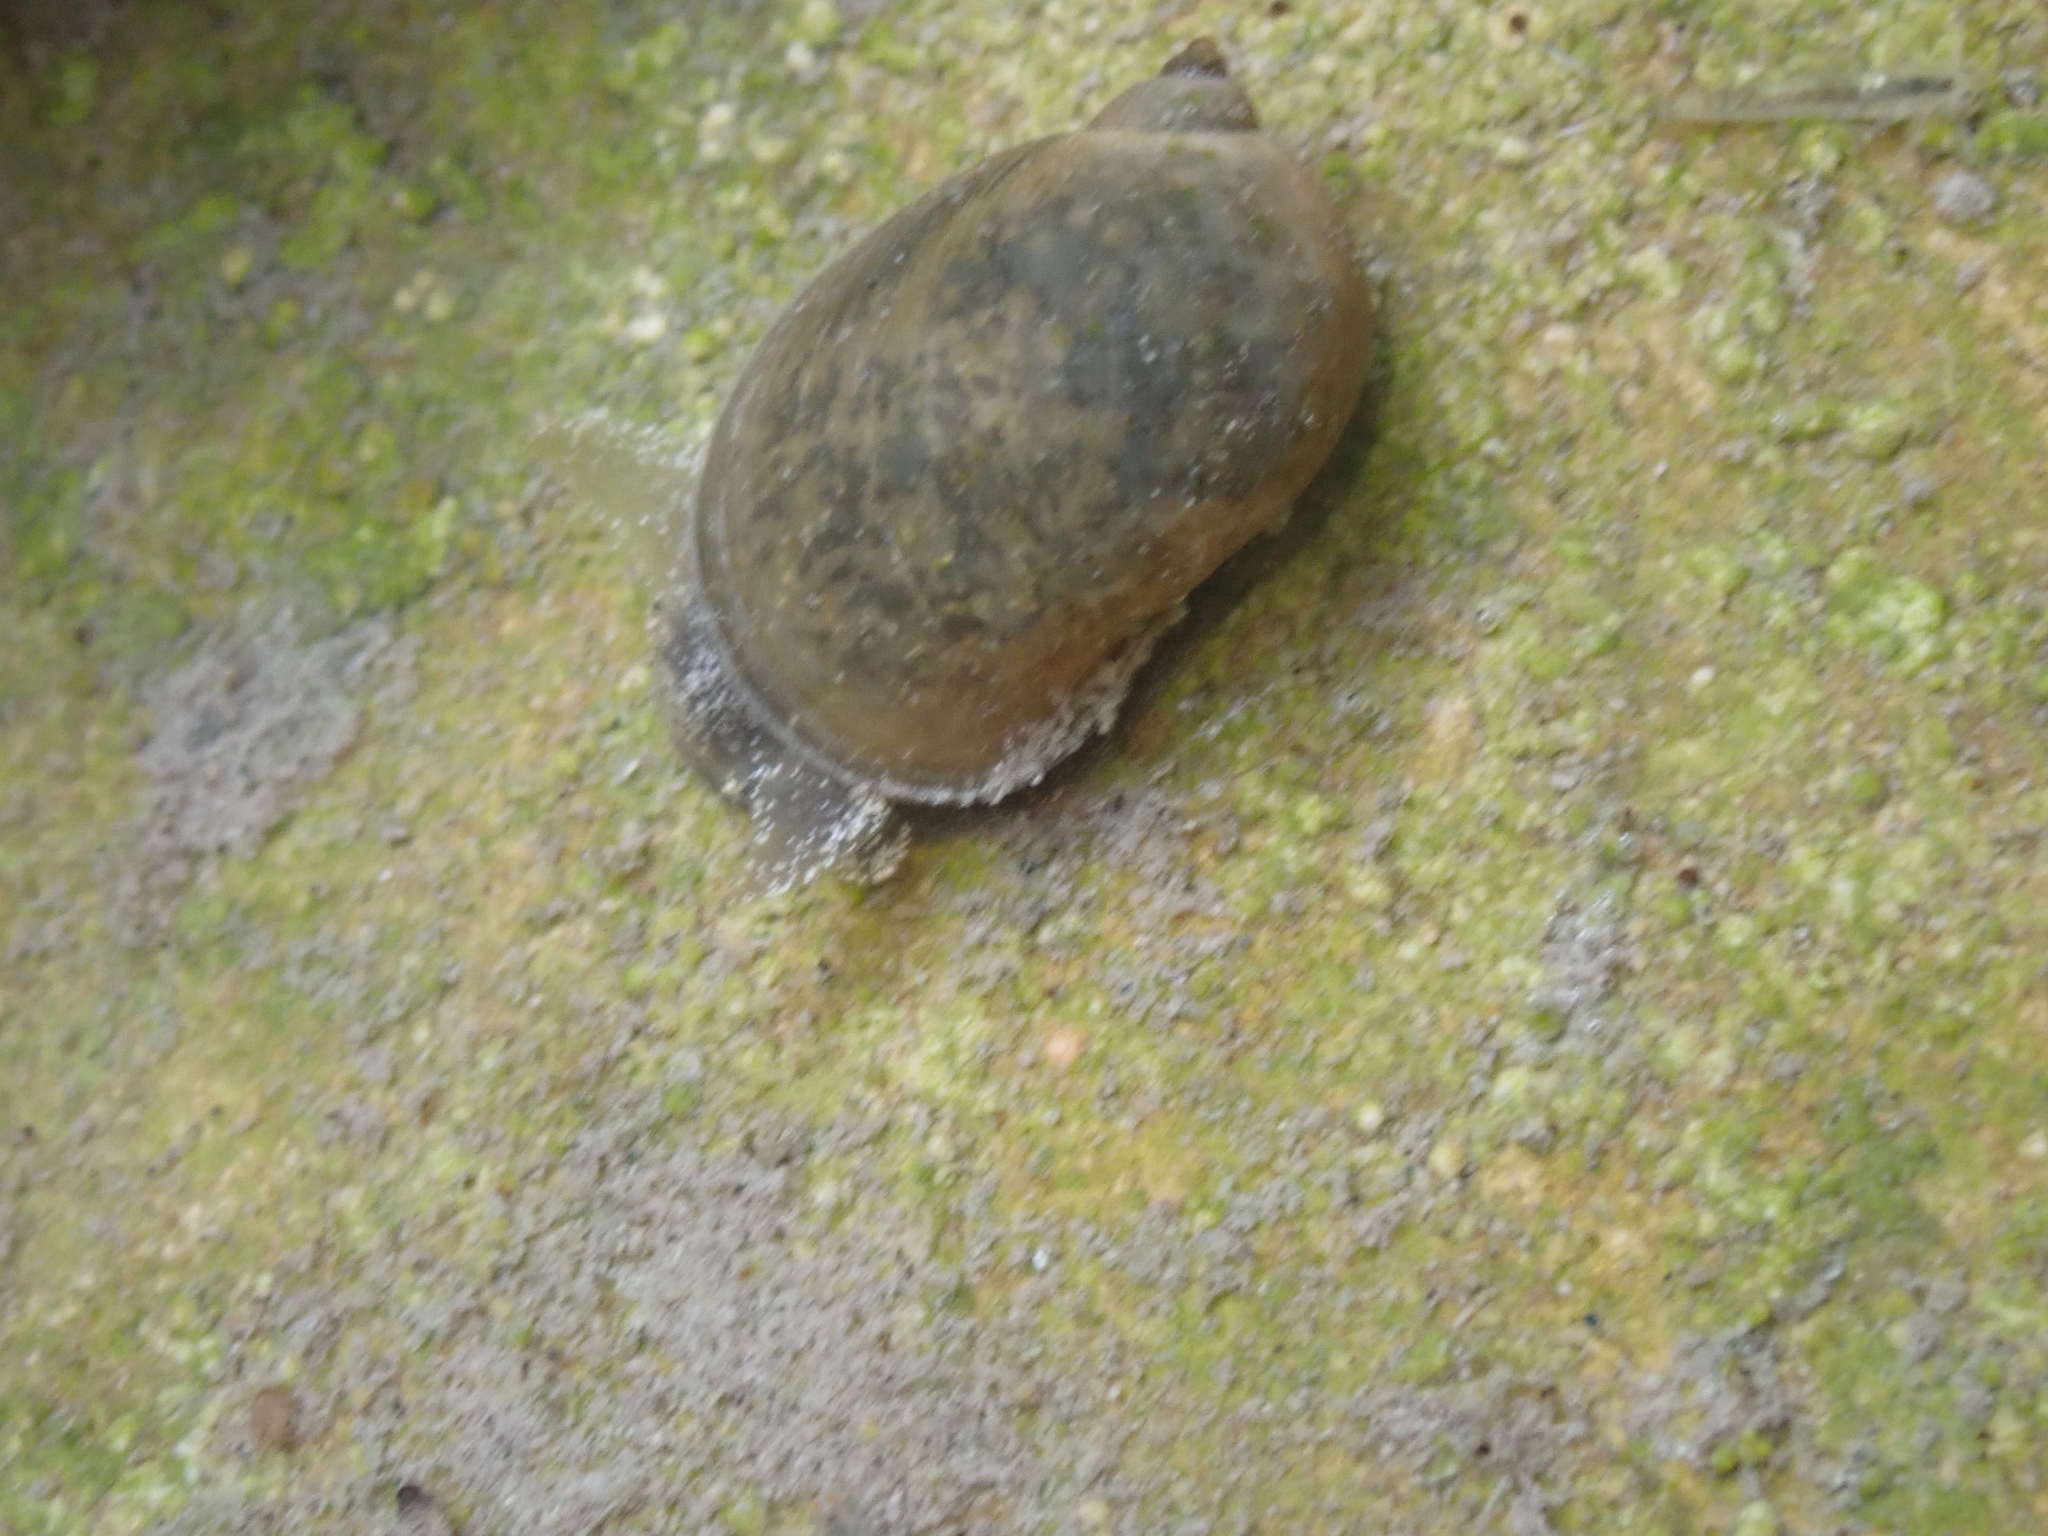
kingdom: Animalia
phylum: Mollusca
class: Gastropoda
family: Lymnaeidae
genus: Ampullaceana
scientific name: Ampullaceana balthica
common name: Wandering pond snail
